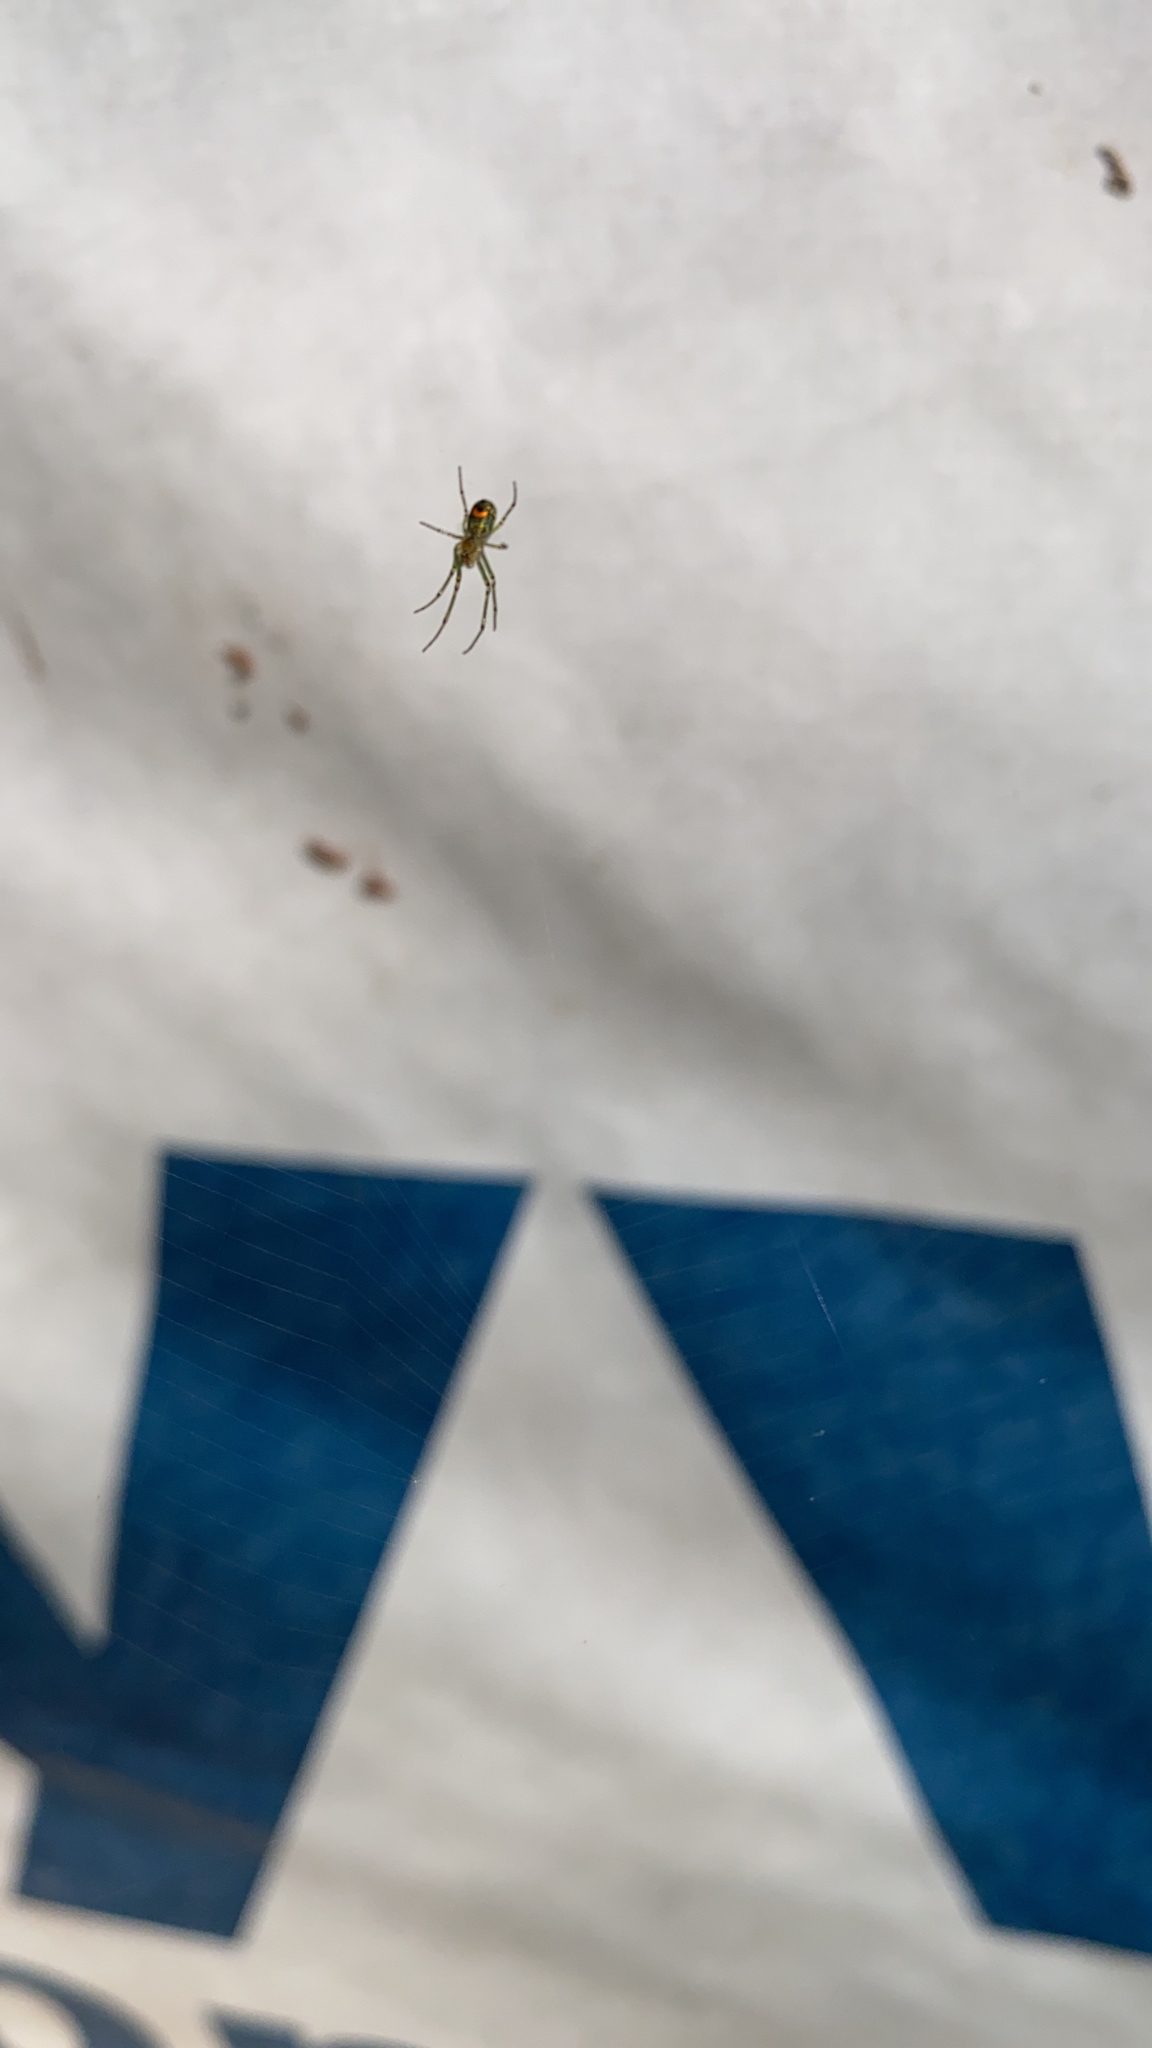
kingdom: Animalia
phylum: Arthropoda
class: Arachnida
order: Araneae
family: Tetragnathidae
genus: Leucauge
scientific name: Leucauge venusta
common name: Longjawed orb weavers
